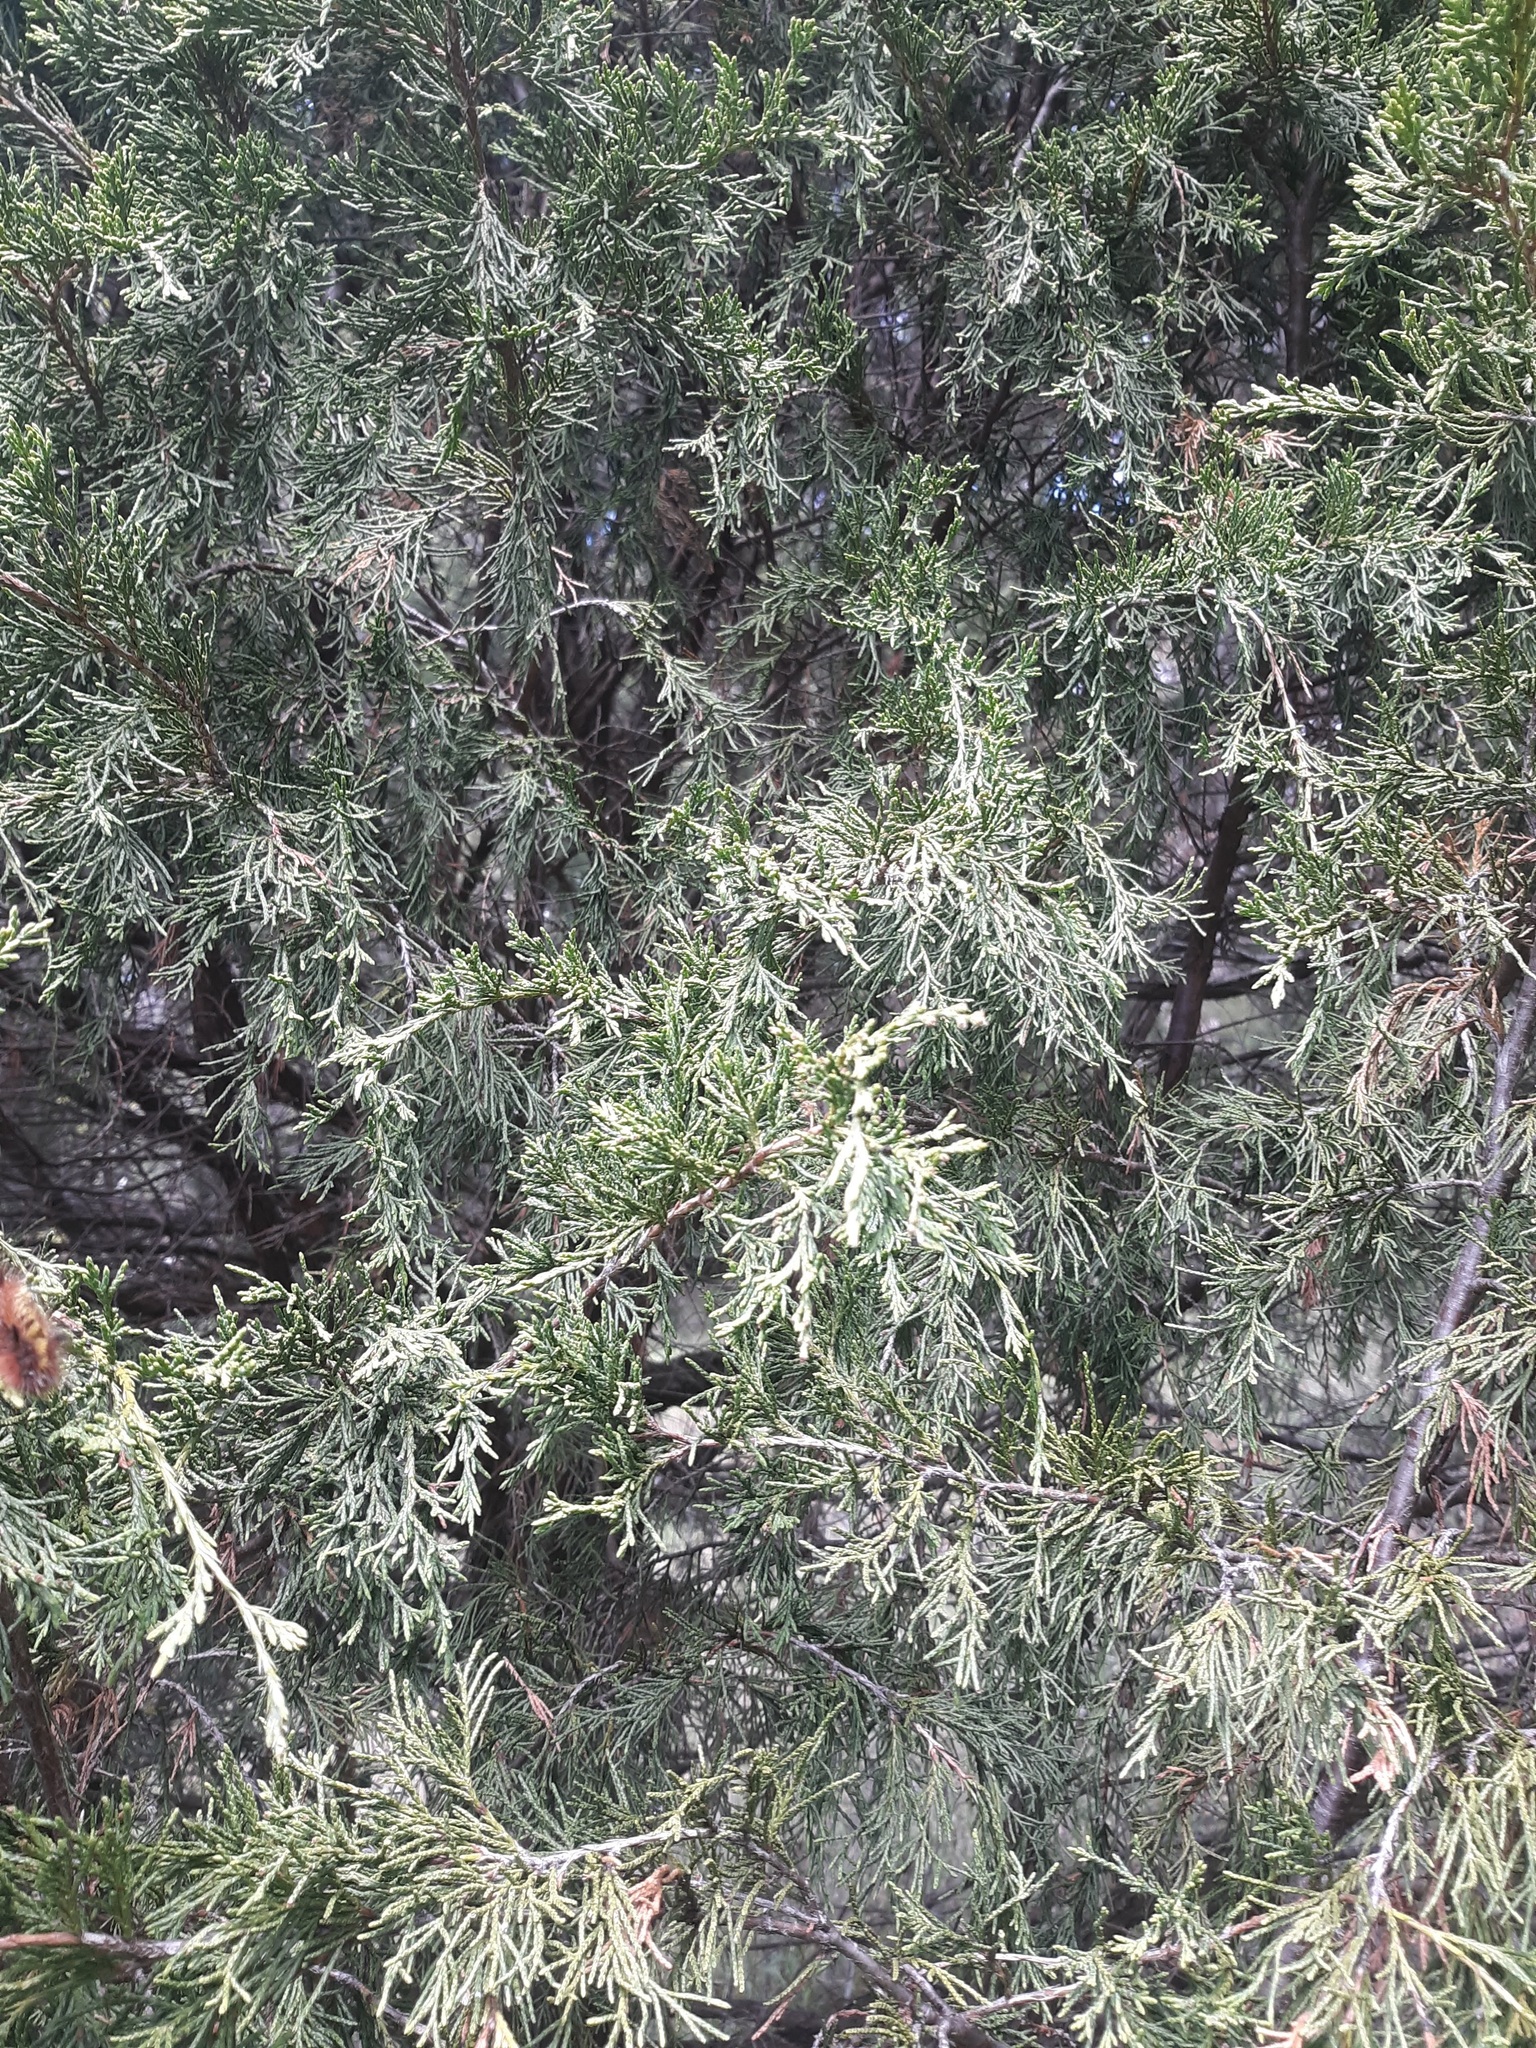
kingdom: Plantae
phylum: Tracheophyta
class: Pinopsida
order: Pinales
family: Cupressaceae
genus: Juniperus
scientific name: Juniperus scopulorum
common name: Rocky mountain juniper
